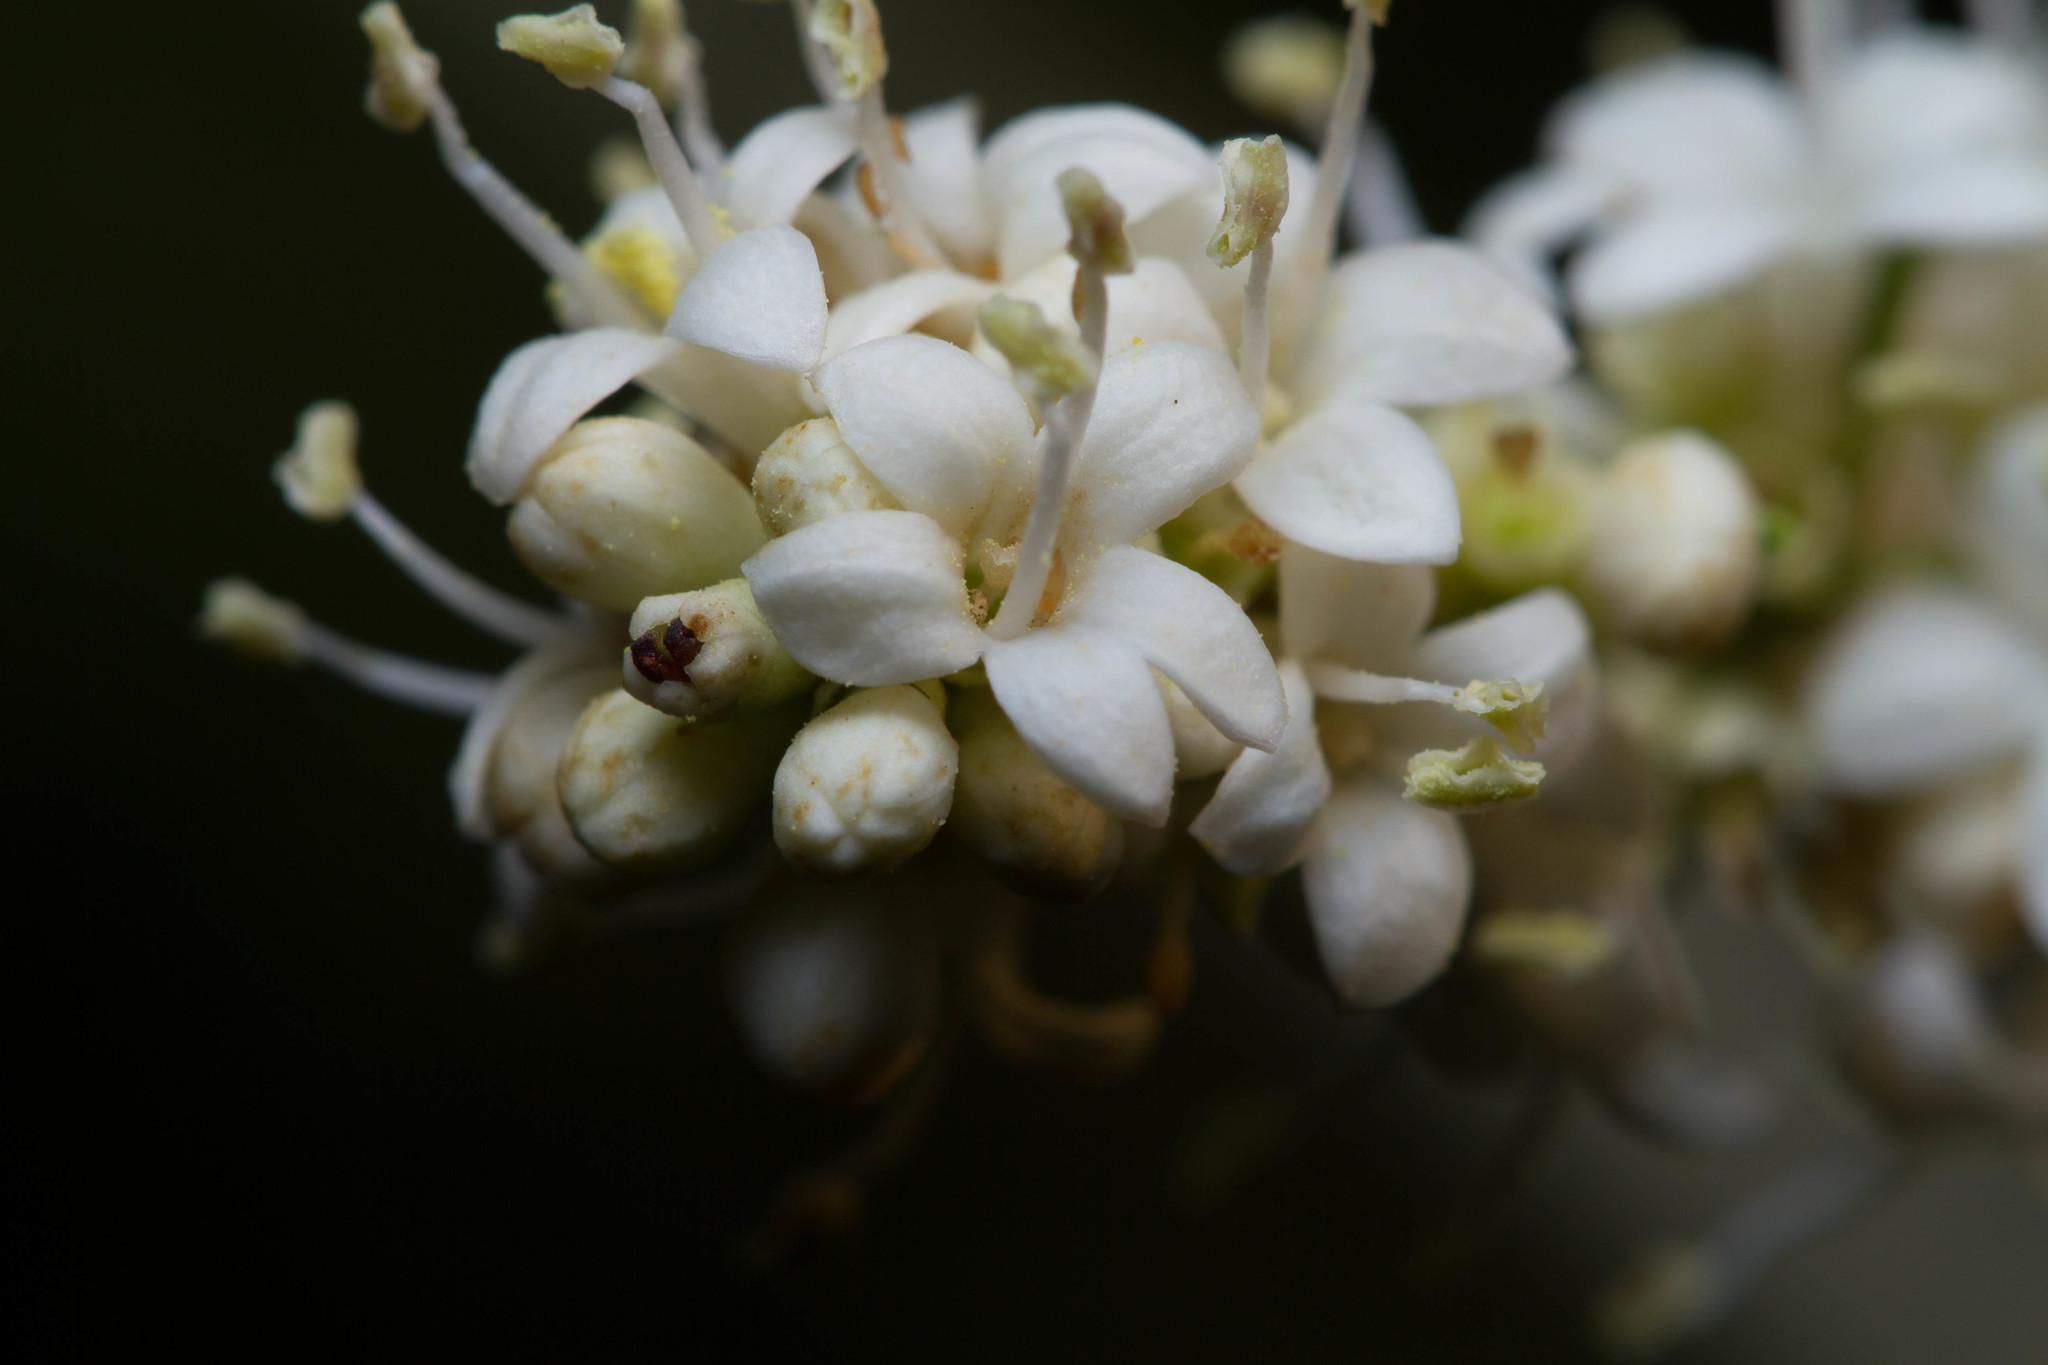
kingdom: Plantae
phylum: Tracheophyta
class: Magnoliopsida
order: Lamiales
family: Oleaceae
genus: Ligustrum
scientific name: Ligustrum quihoui
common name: Waxyleaf privet
